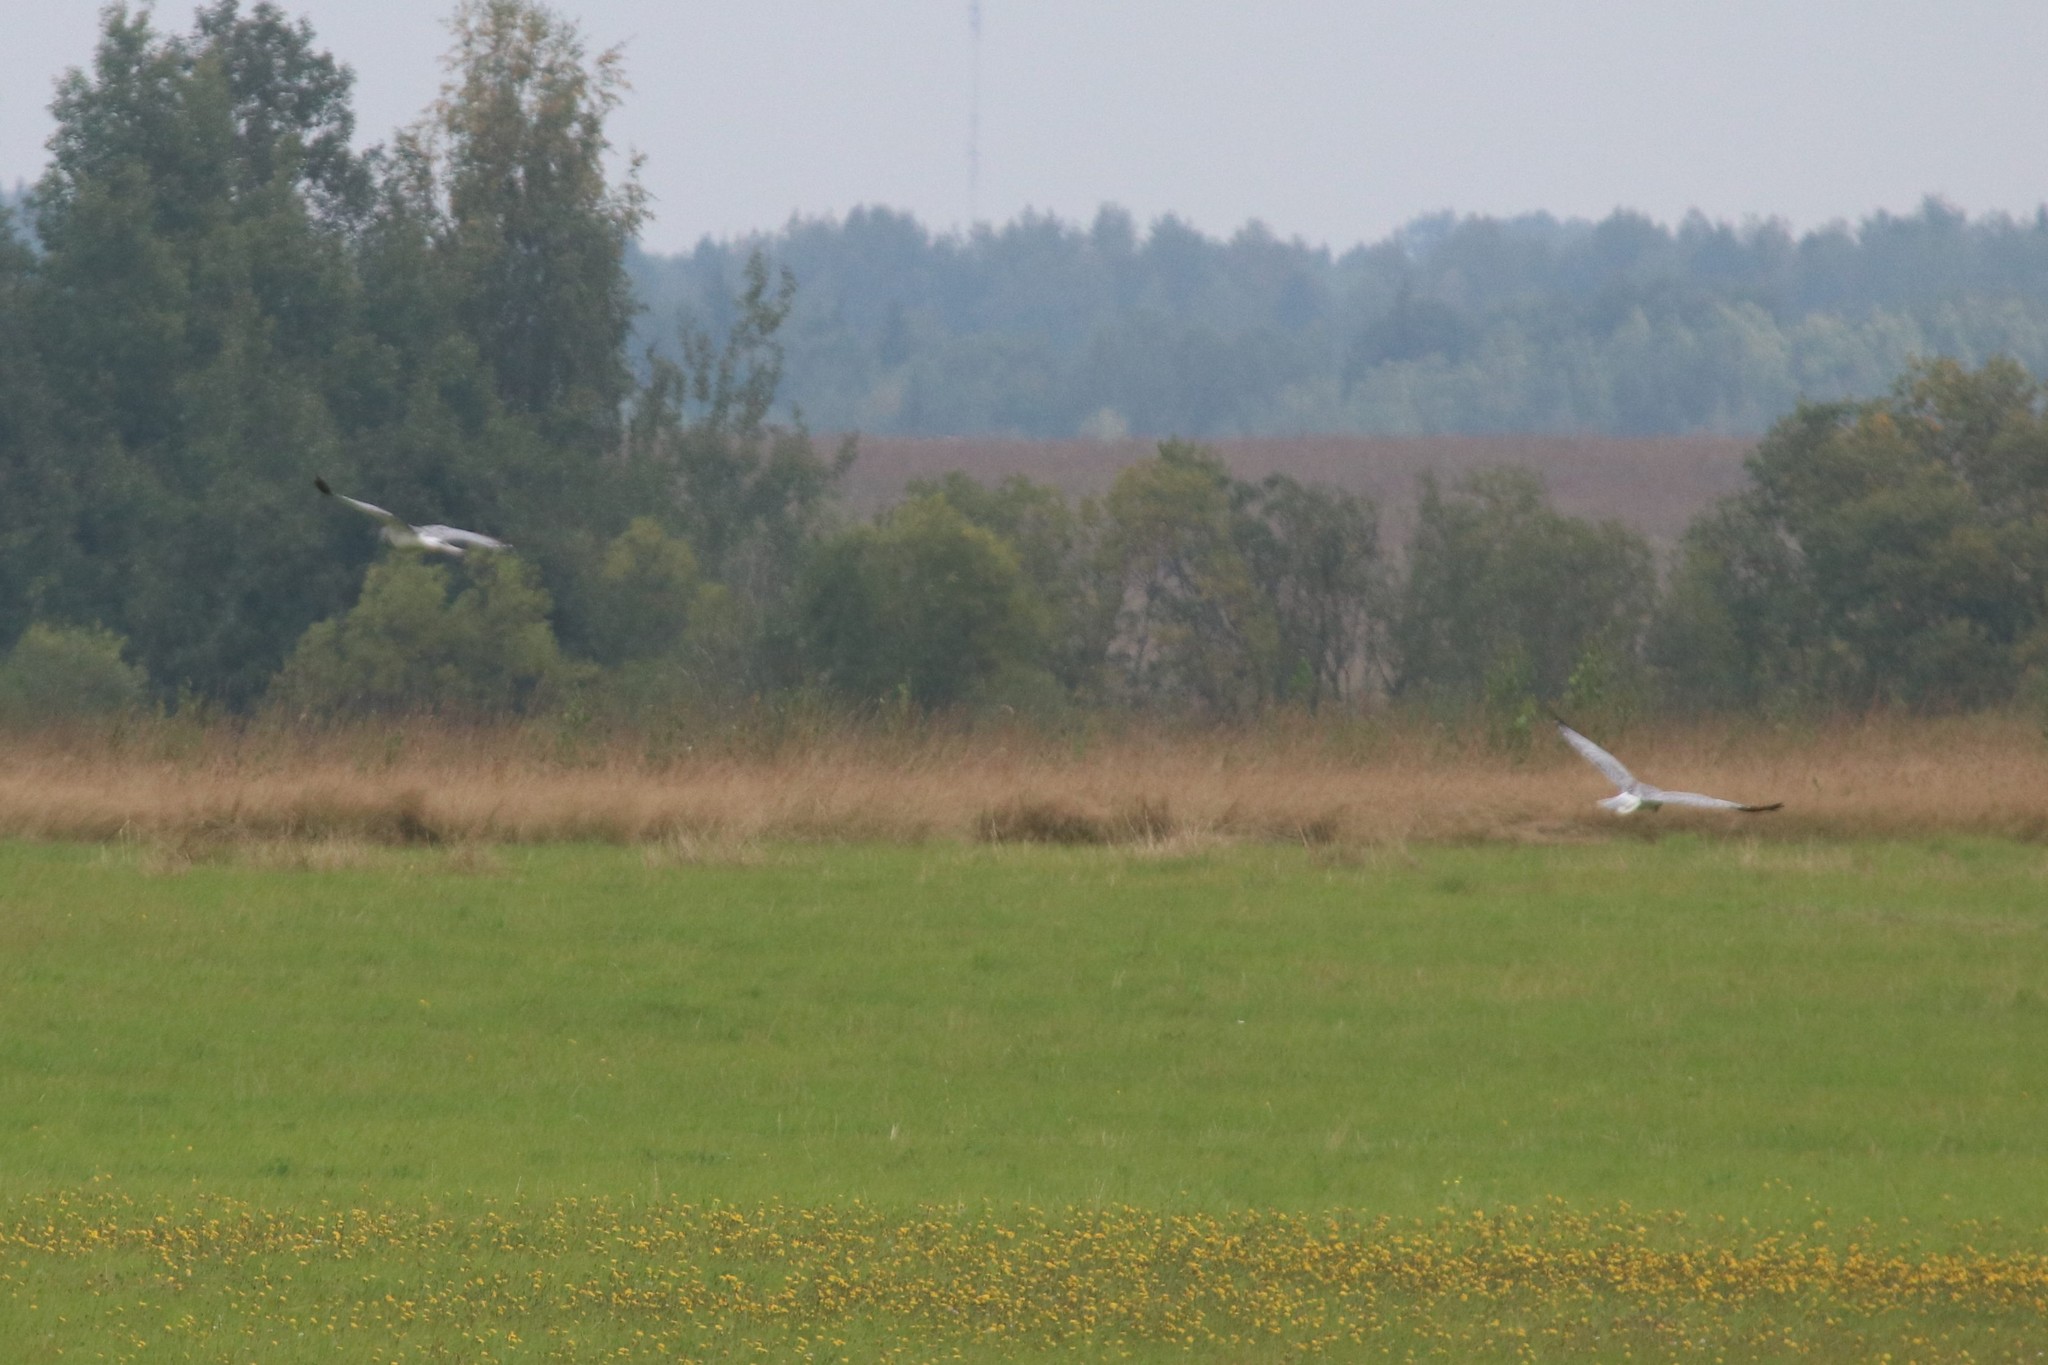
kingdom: Animalia
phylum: Chordata
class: Aves
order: Accipitriformes
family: Accipitridae
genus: Circus
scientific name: Circus cyaneus
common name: Hen harrier
